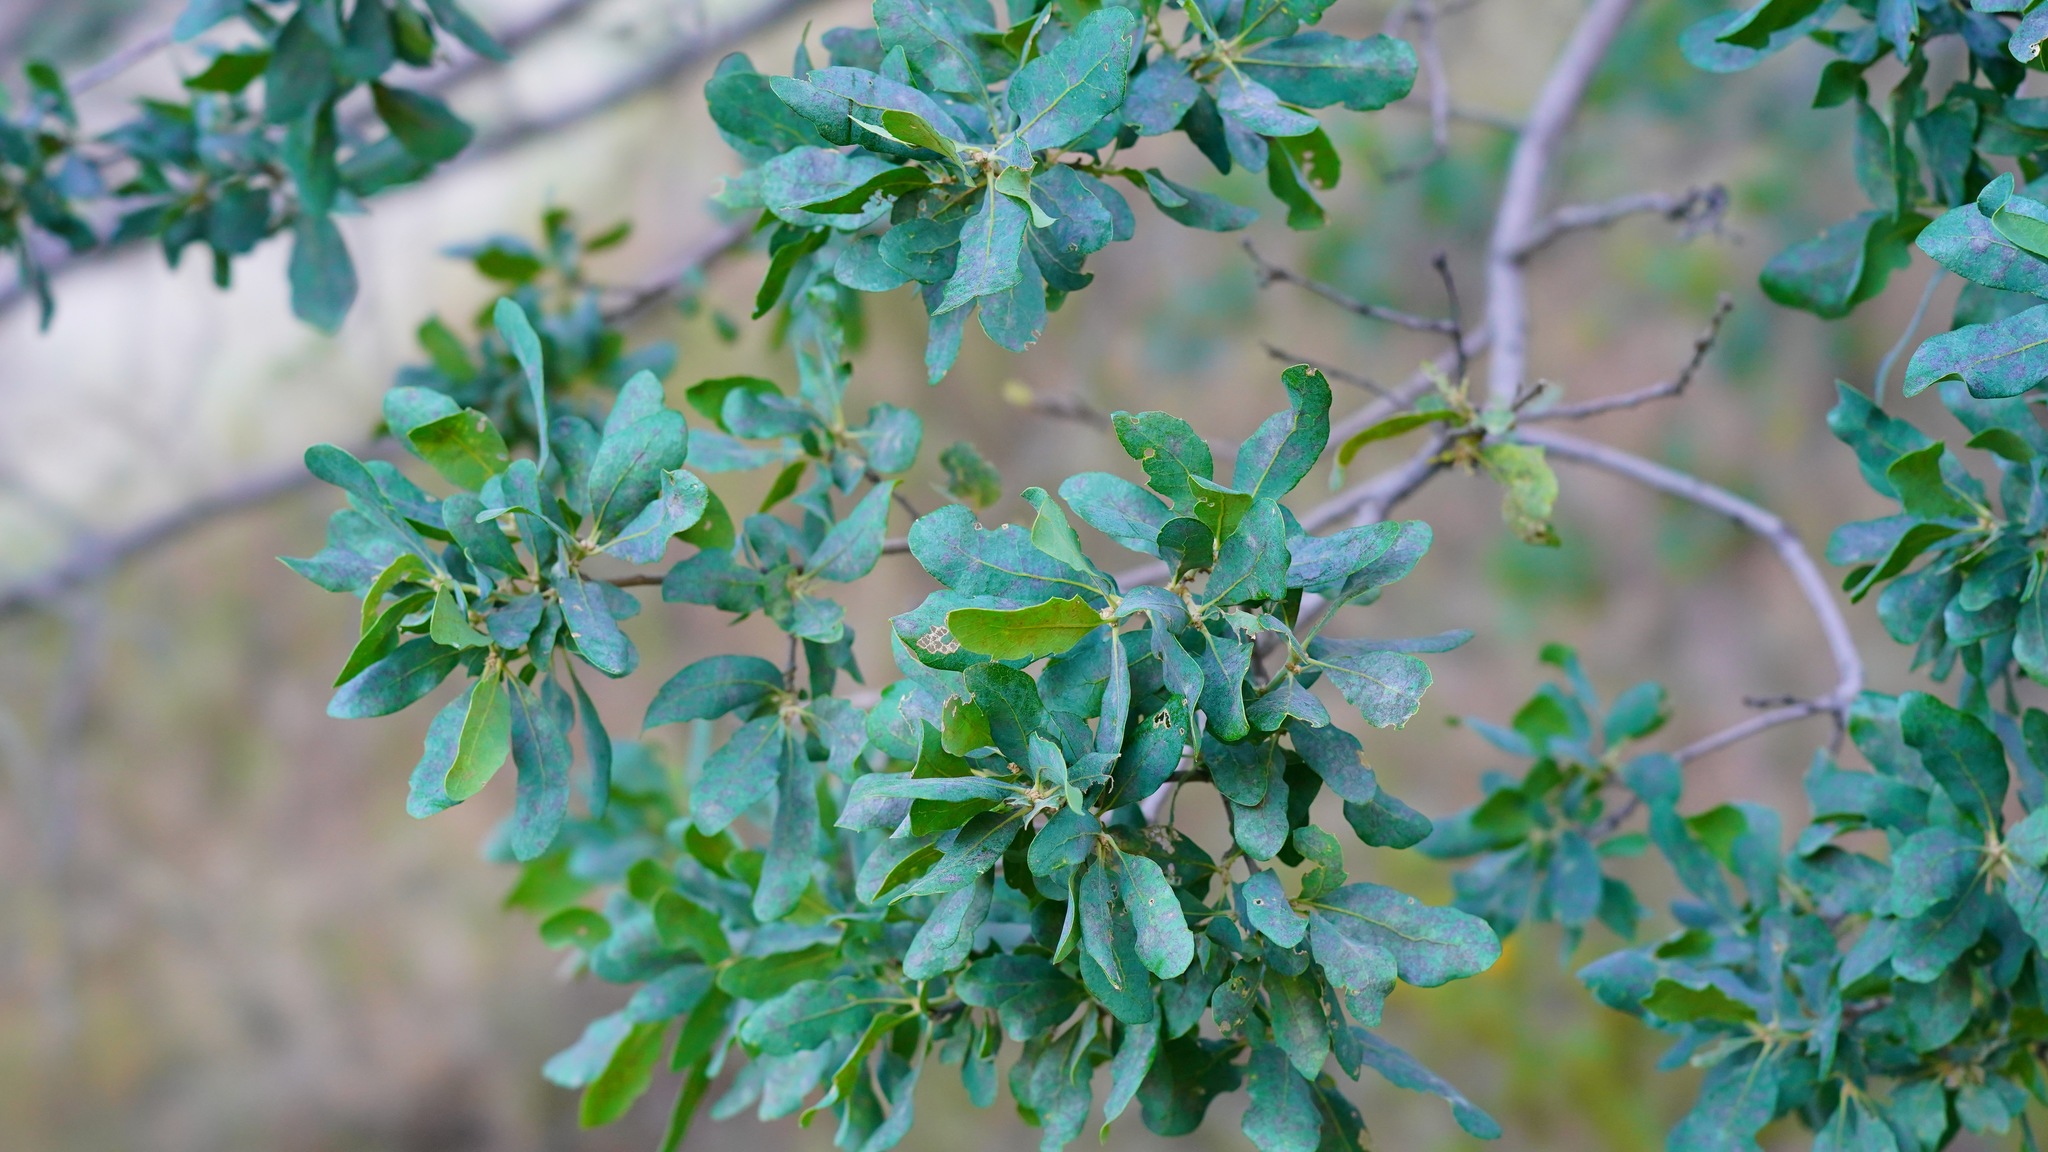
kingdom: Plantae
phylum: Tracheophyta
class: Magnoliopsida
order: Fagales
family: Fagaceae
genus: Quercus
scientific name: Quercus douglasii
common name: Blue oak
